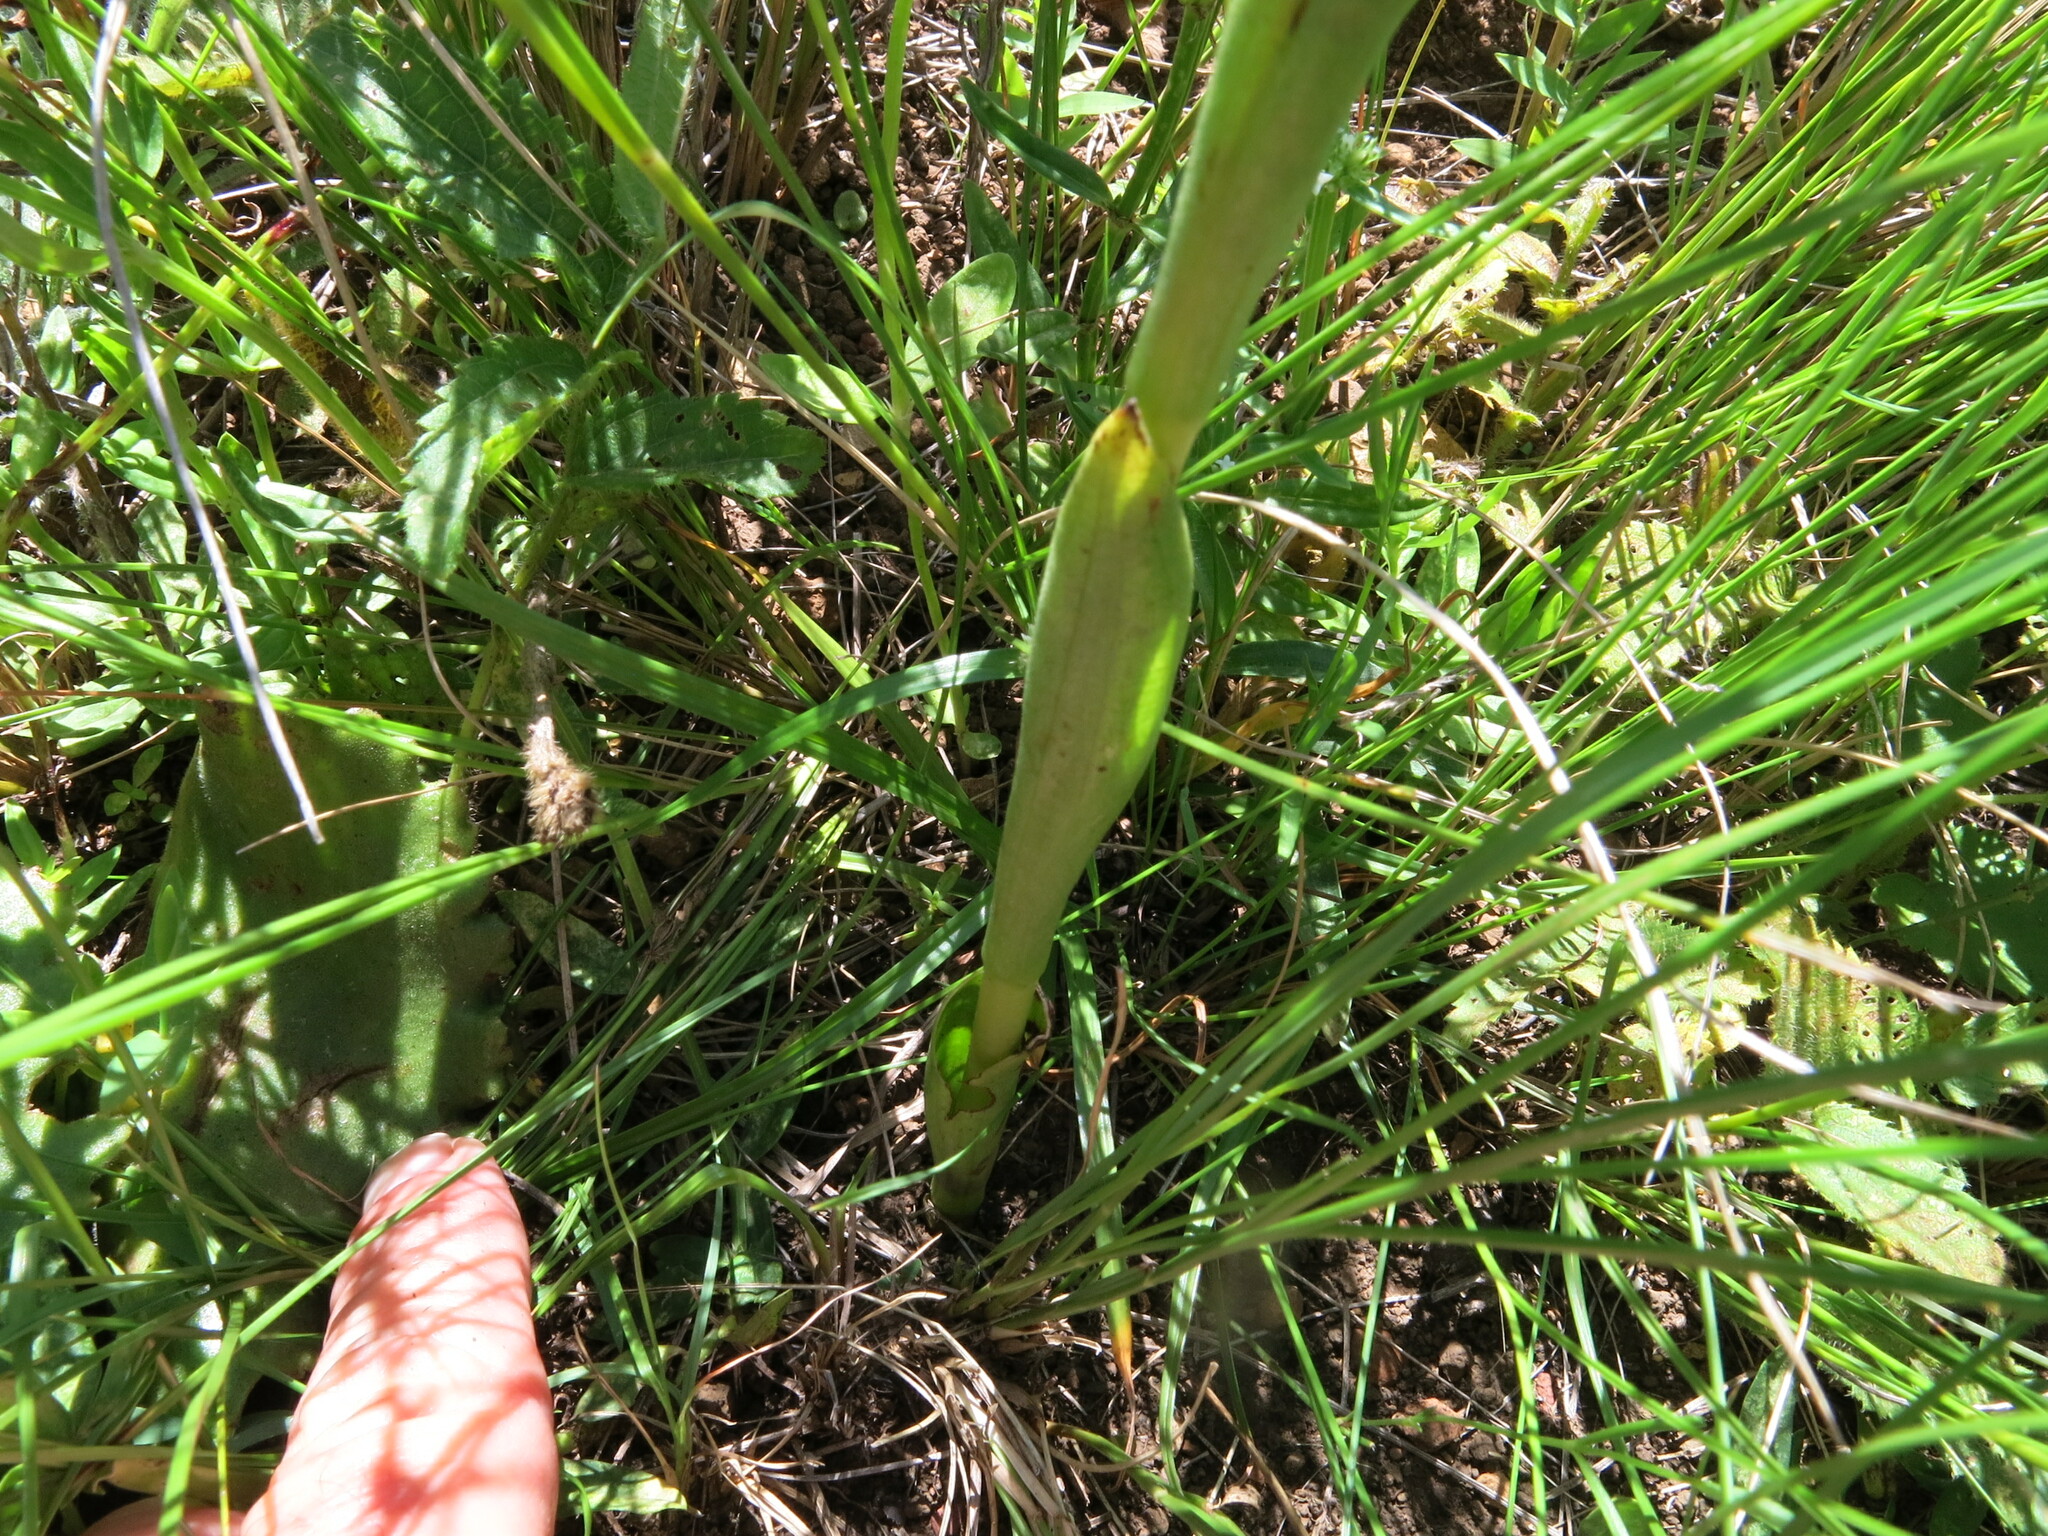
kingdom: Plantae
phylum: Tracheophyta
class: Liliopsida
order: Asparagales
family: Orchidaceae
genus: Satyrium
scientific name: Satyrium longicauda
